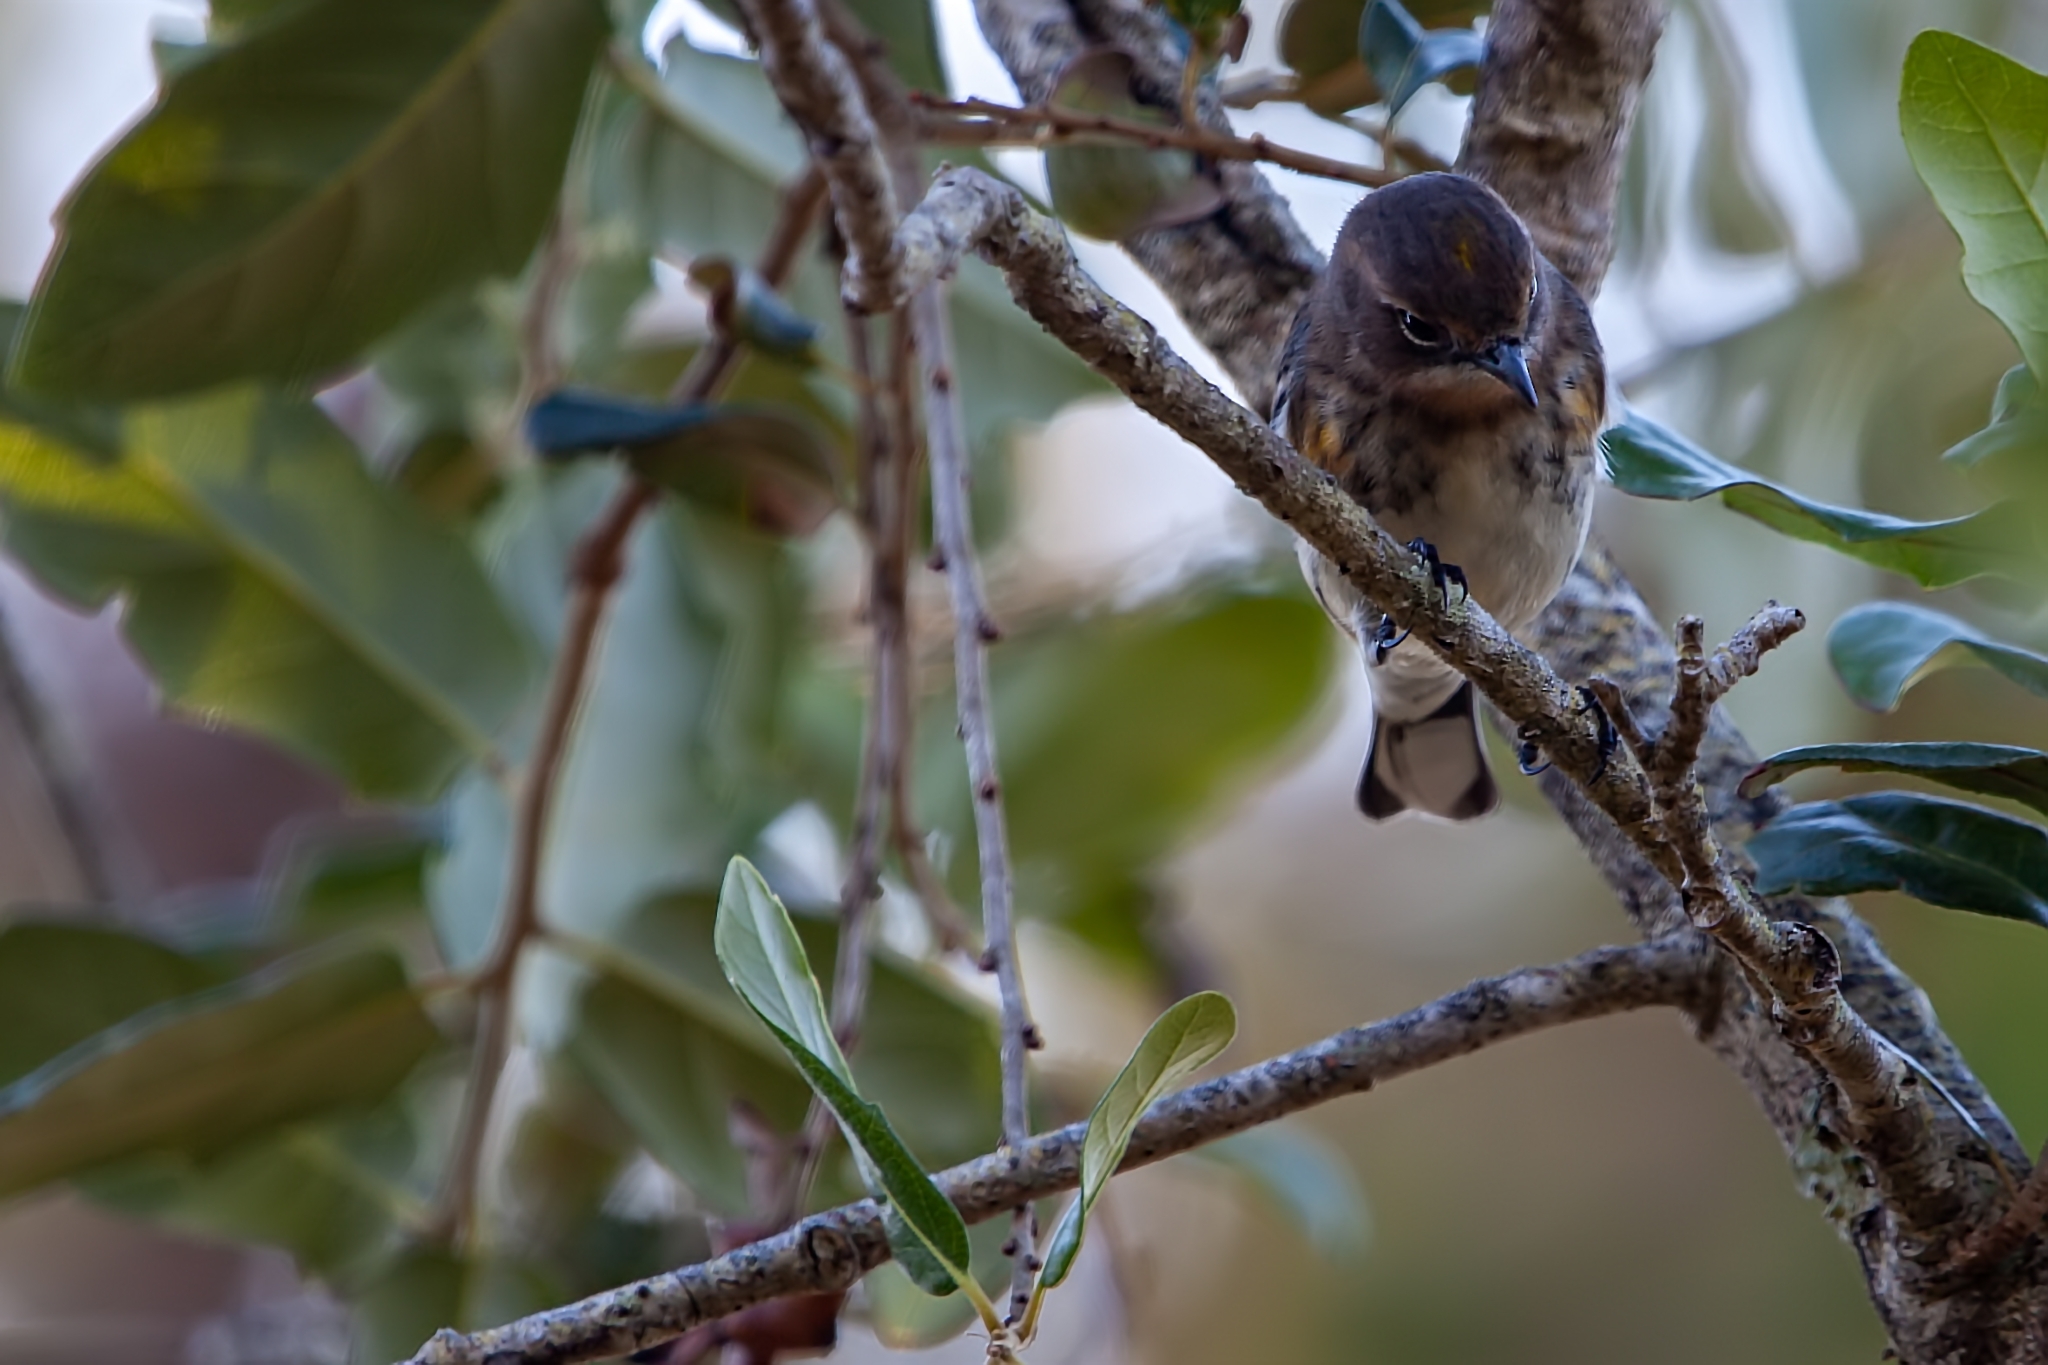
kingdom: Animalia
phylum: Chordata
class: Aves
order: Passeriformes
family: Parulidae
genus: Setophaga
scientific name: Setophaga coronata
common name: Myrtle warbler
